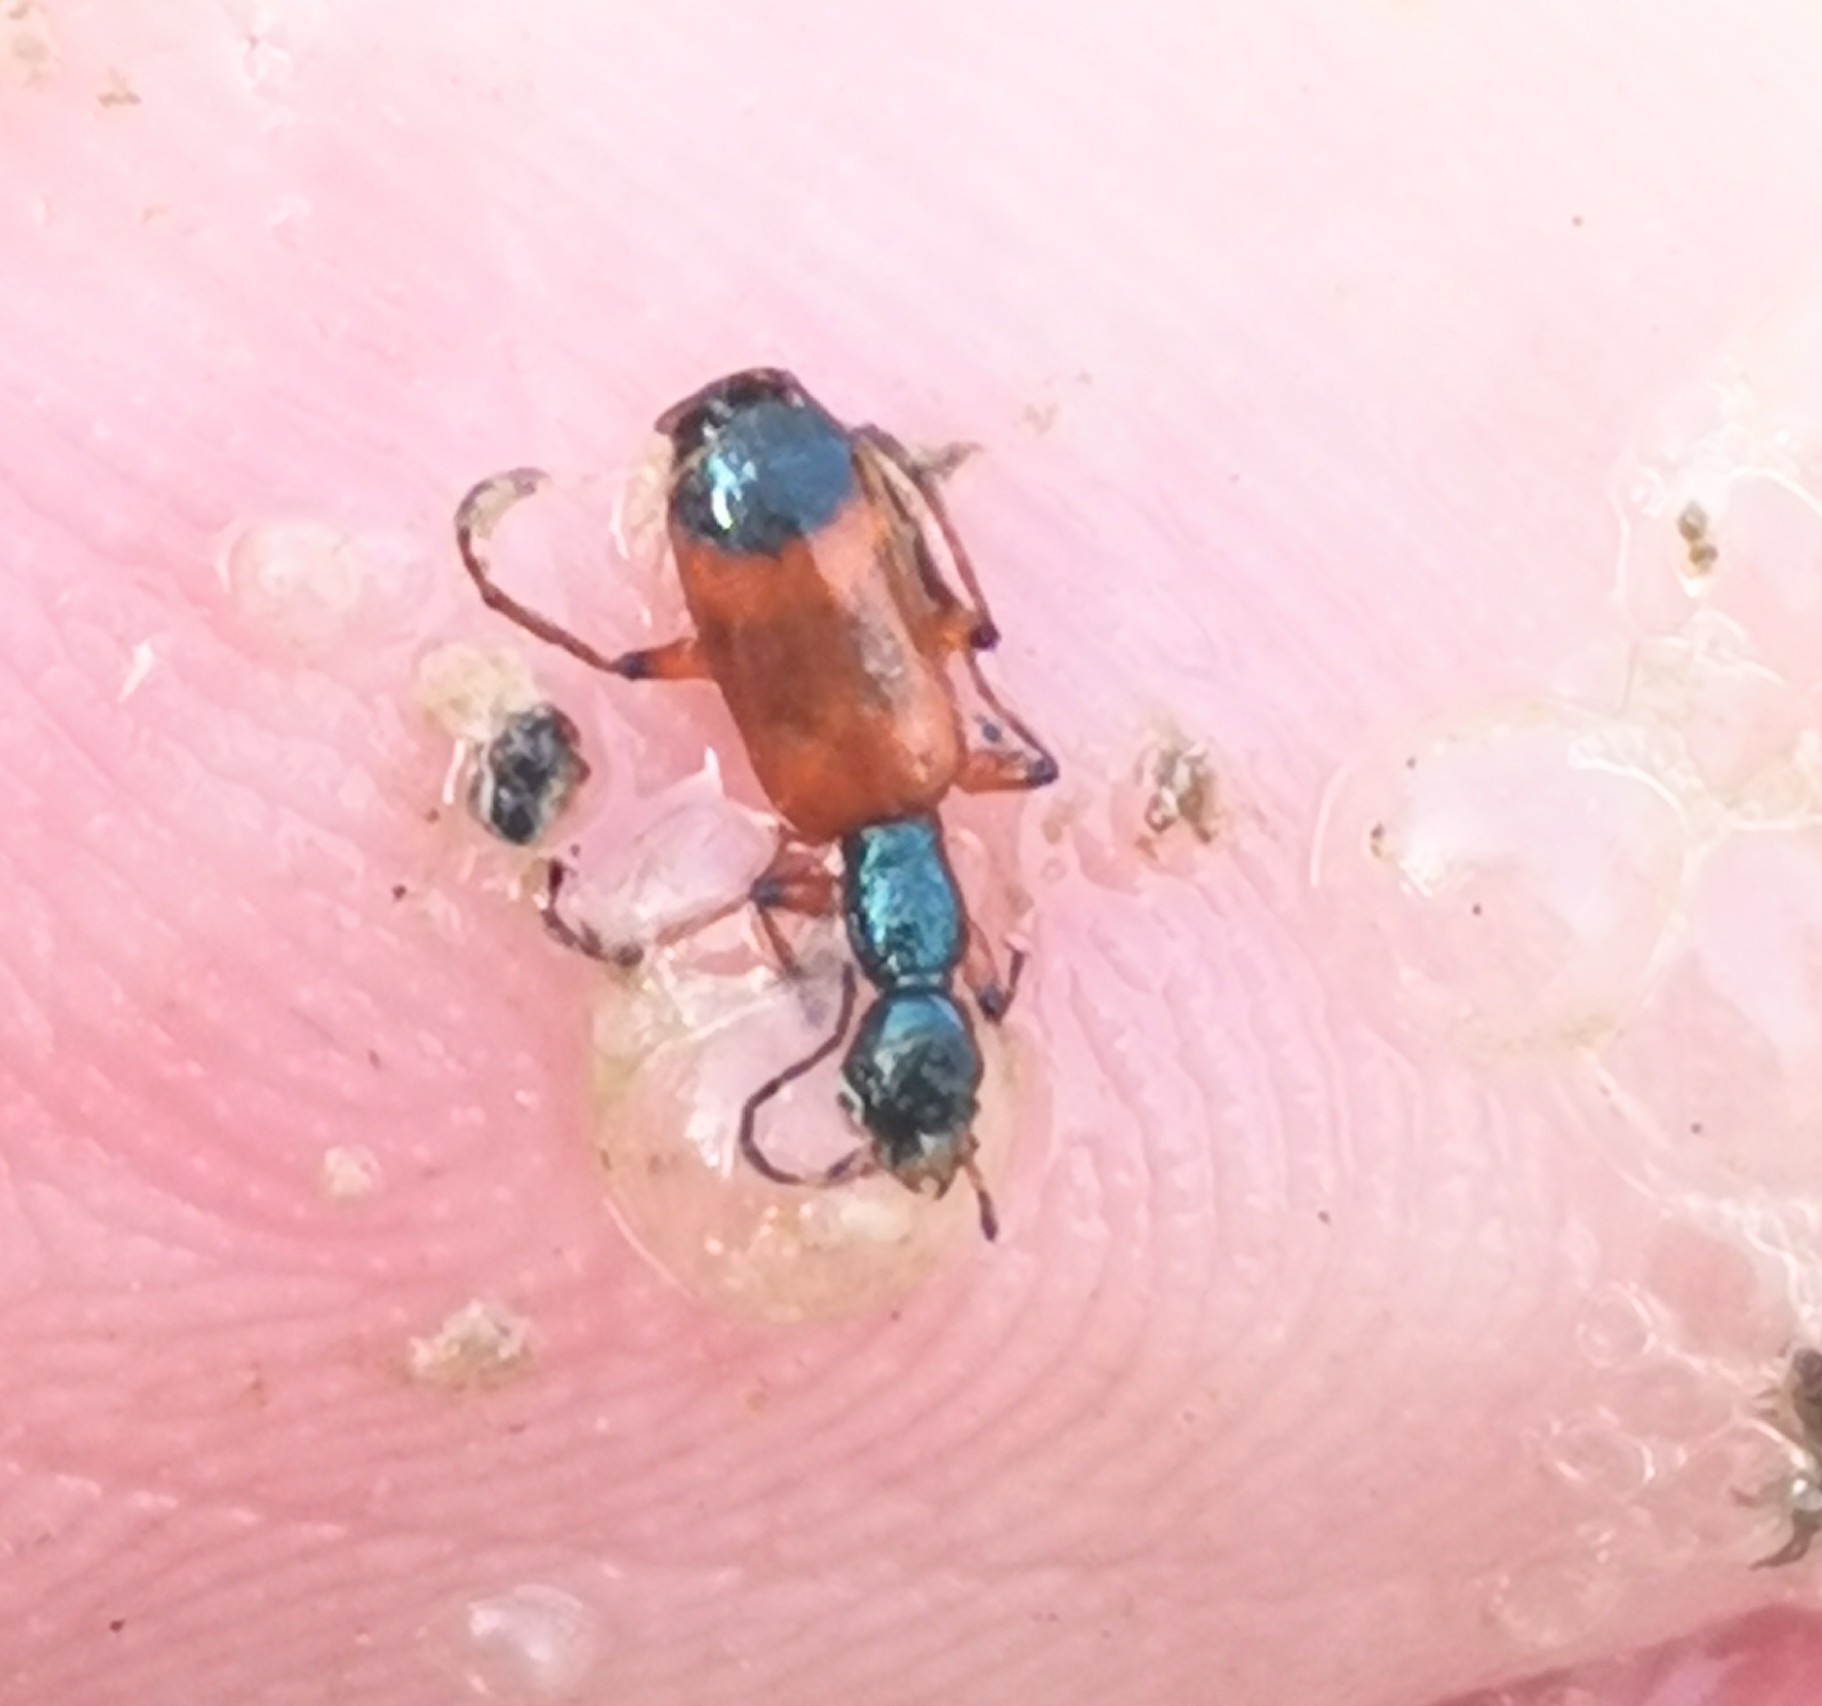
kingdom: Animalia
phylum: Arthropoda
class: Insecta
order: Coleoptera
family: Carabidae
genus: Odacantha
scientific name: Odacantha melanura
